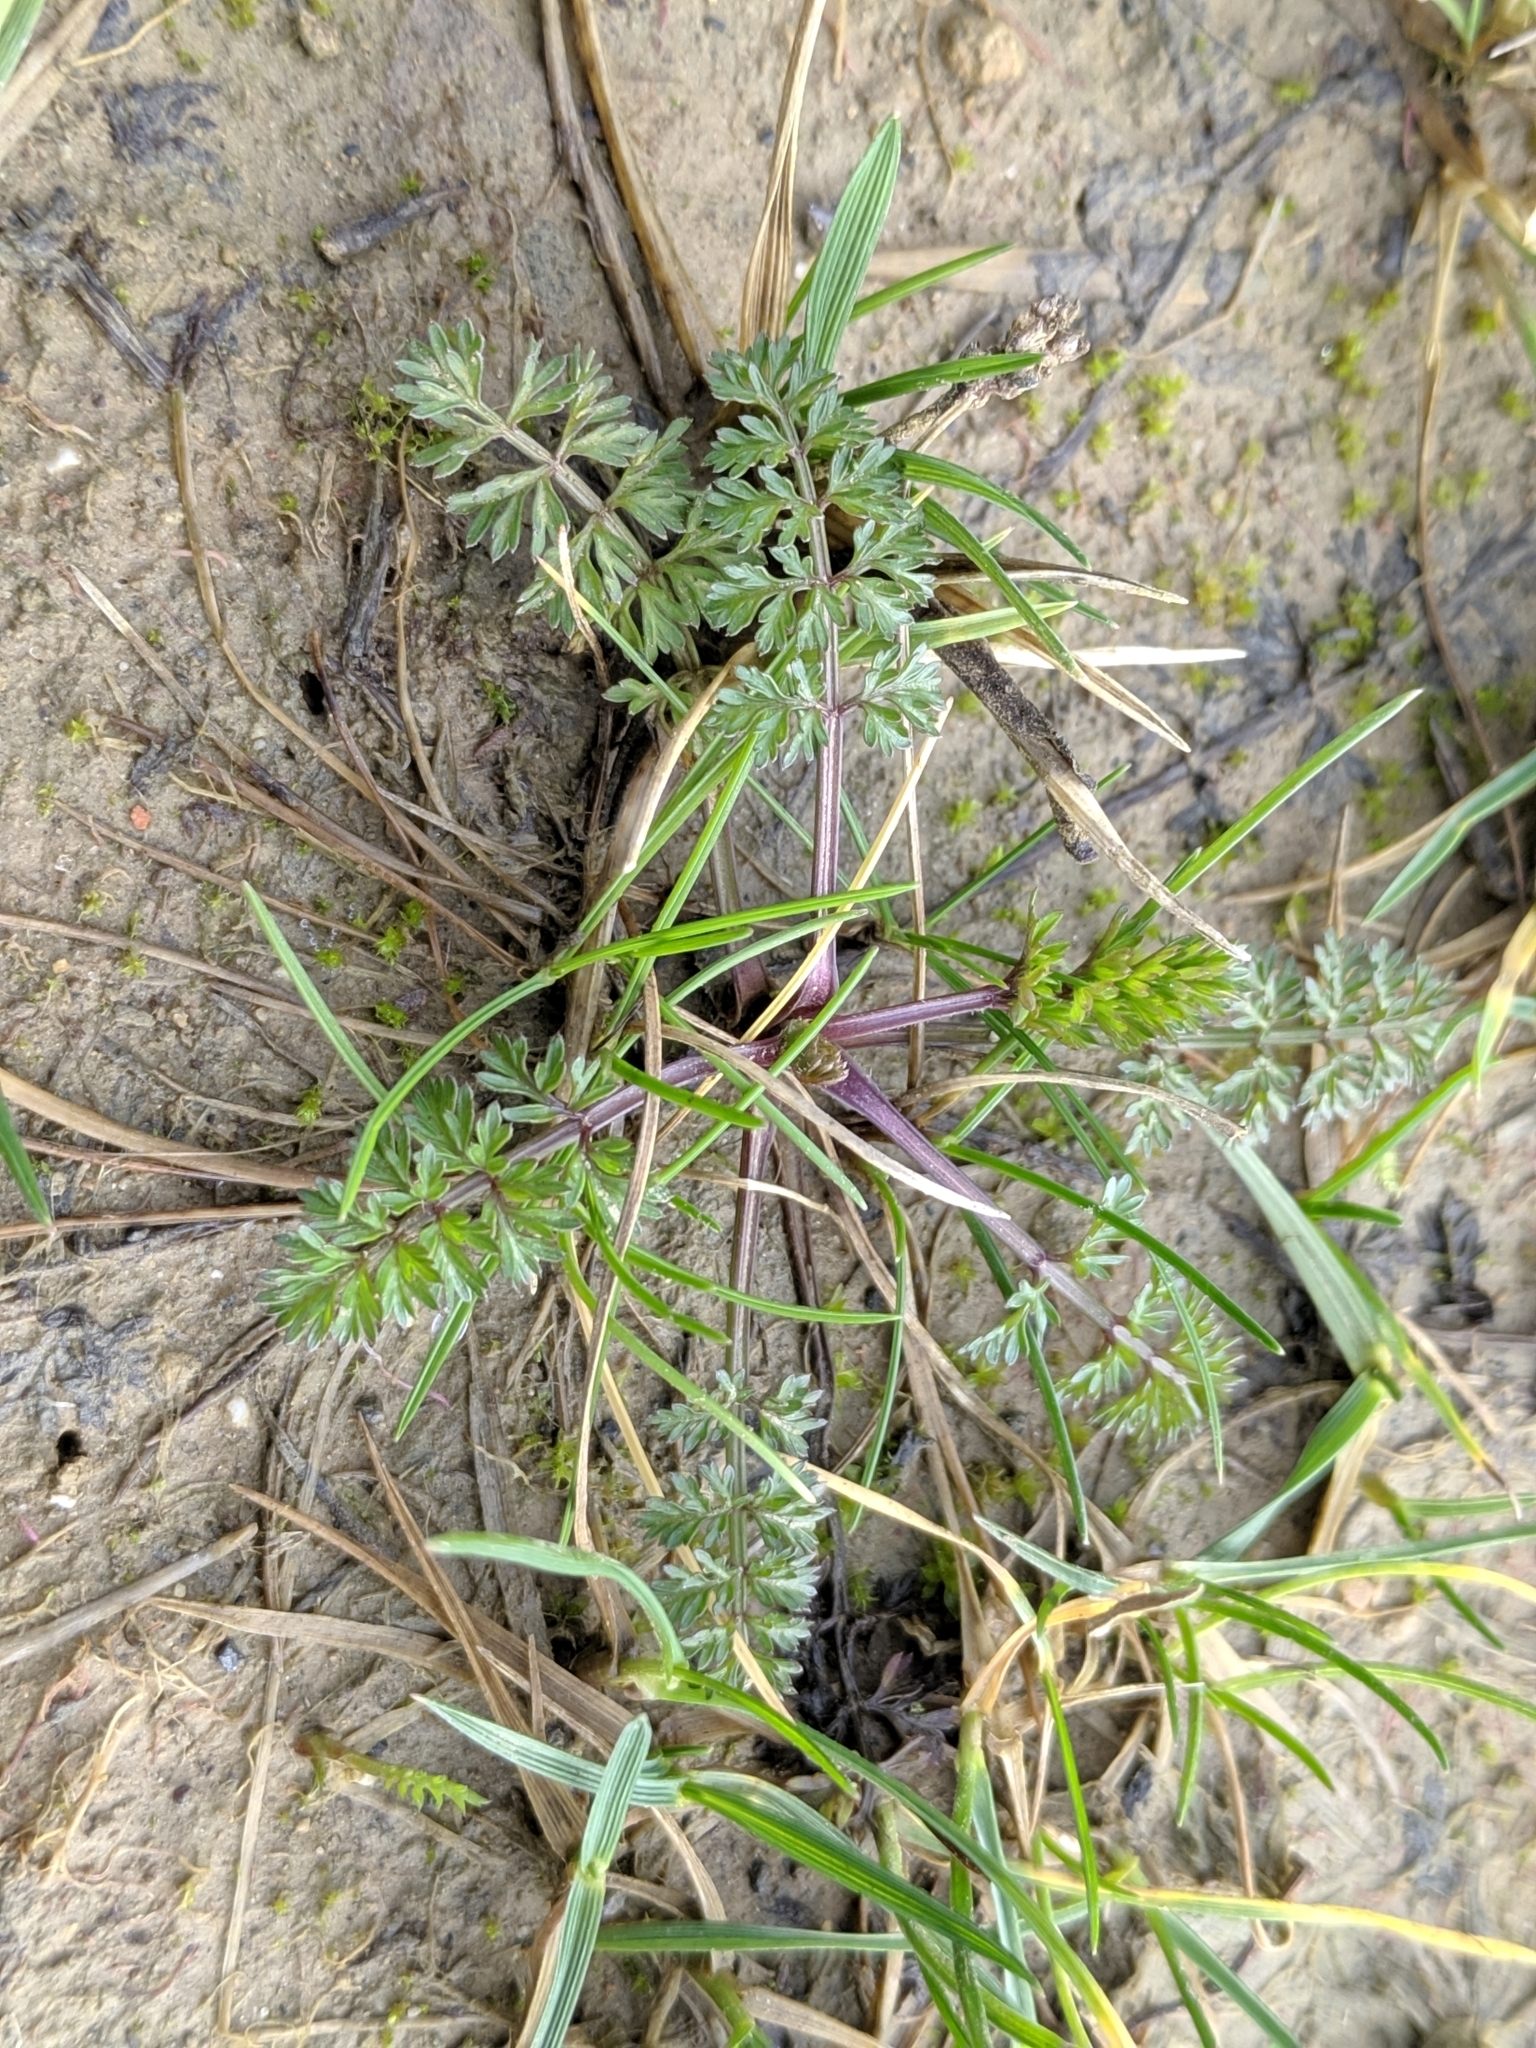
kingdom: Plantae
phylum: Tracheophyta
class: Magnoliopsida
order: Asterales
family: Asteraceae
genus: Achillea
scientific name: Achillea millefolium
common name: Yarrow
